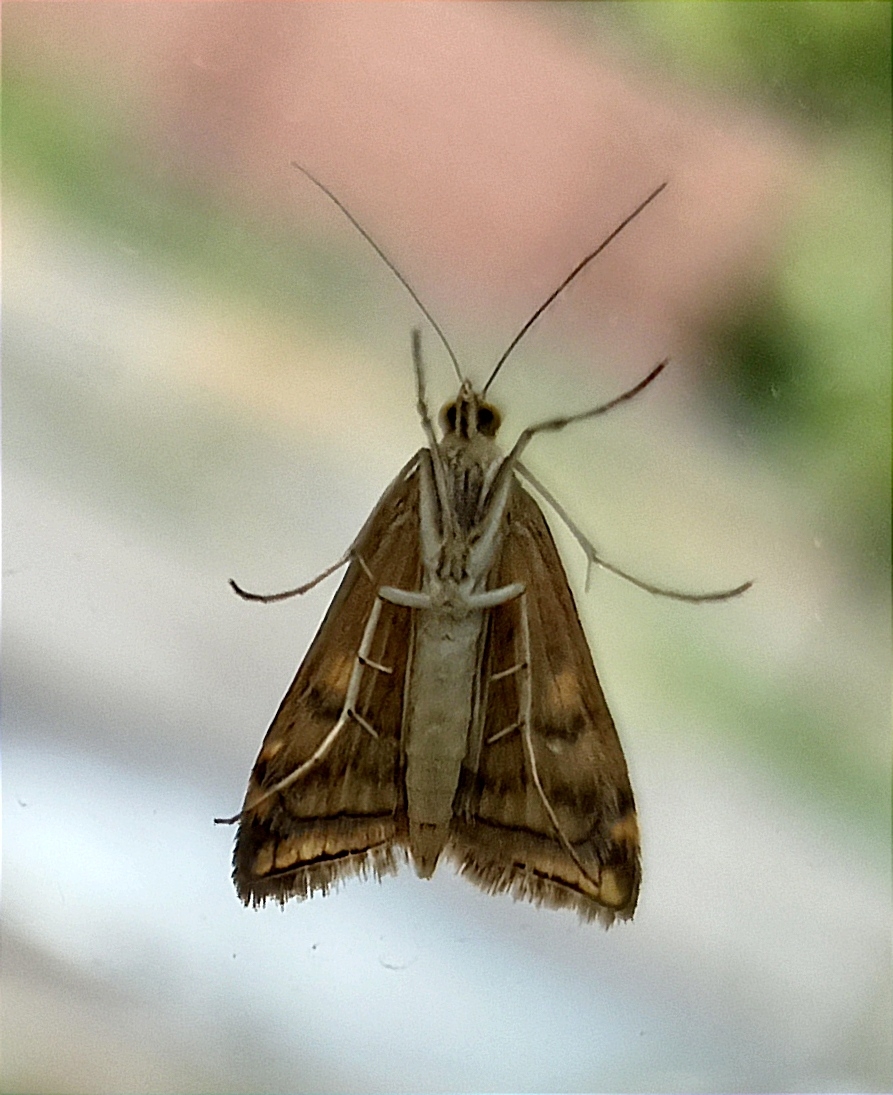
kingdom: Animalia
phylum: Arthropoda
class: Insecta
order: Lepidoptera
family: Crambidae
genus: Loxostege
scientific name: Loxostege sticticalis
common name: Crambid moth
